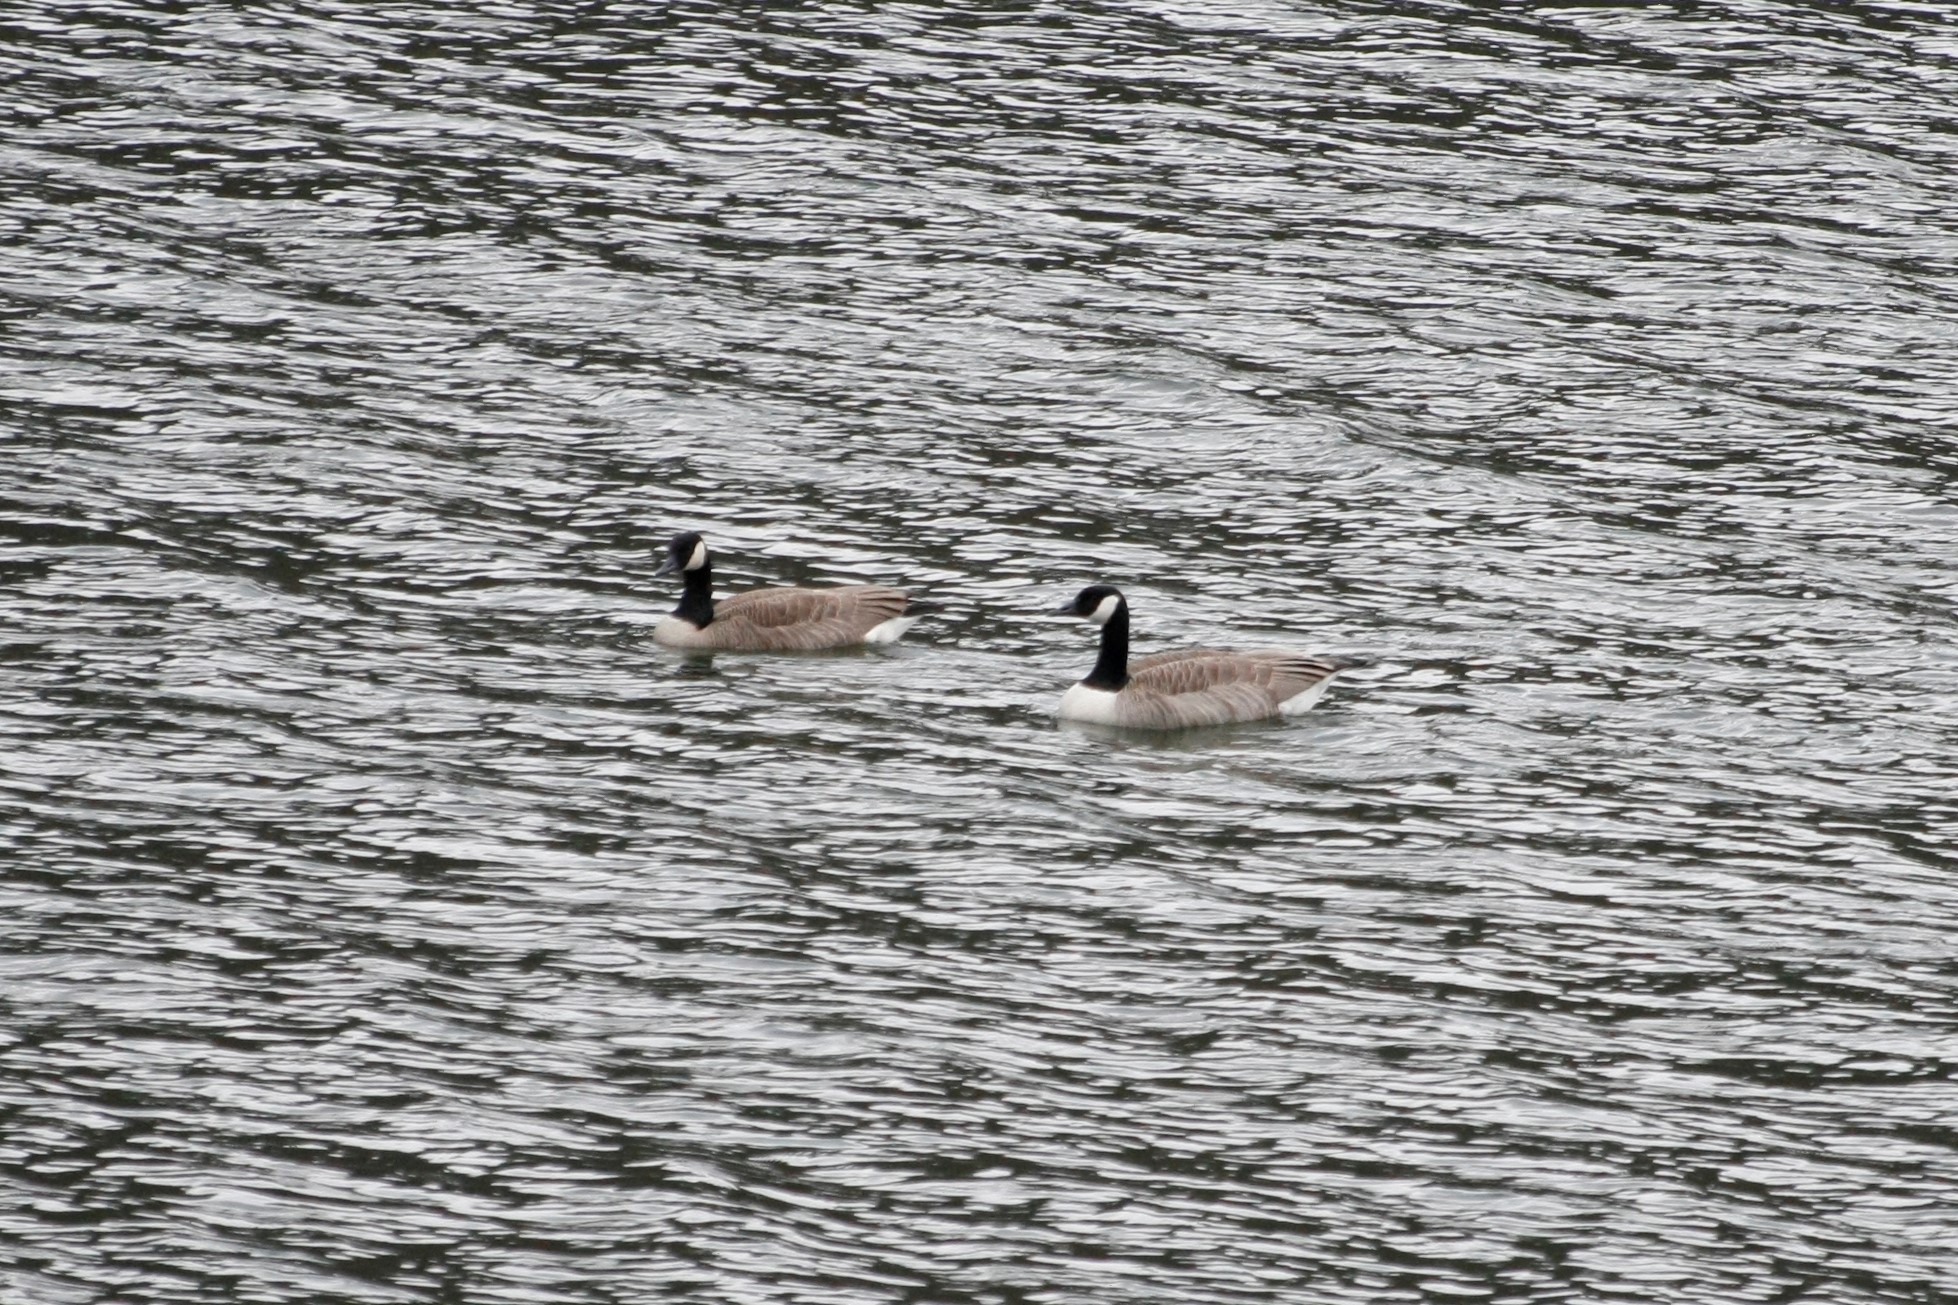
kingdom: Animalia
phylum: Chordata
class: Aves
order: Anseriformes
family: Anatidae
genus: Branta
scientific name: Branta canadensis
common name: Canada goose
